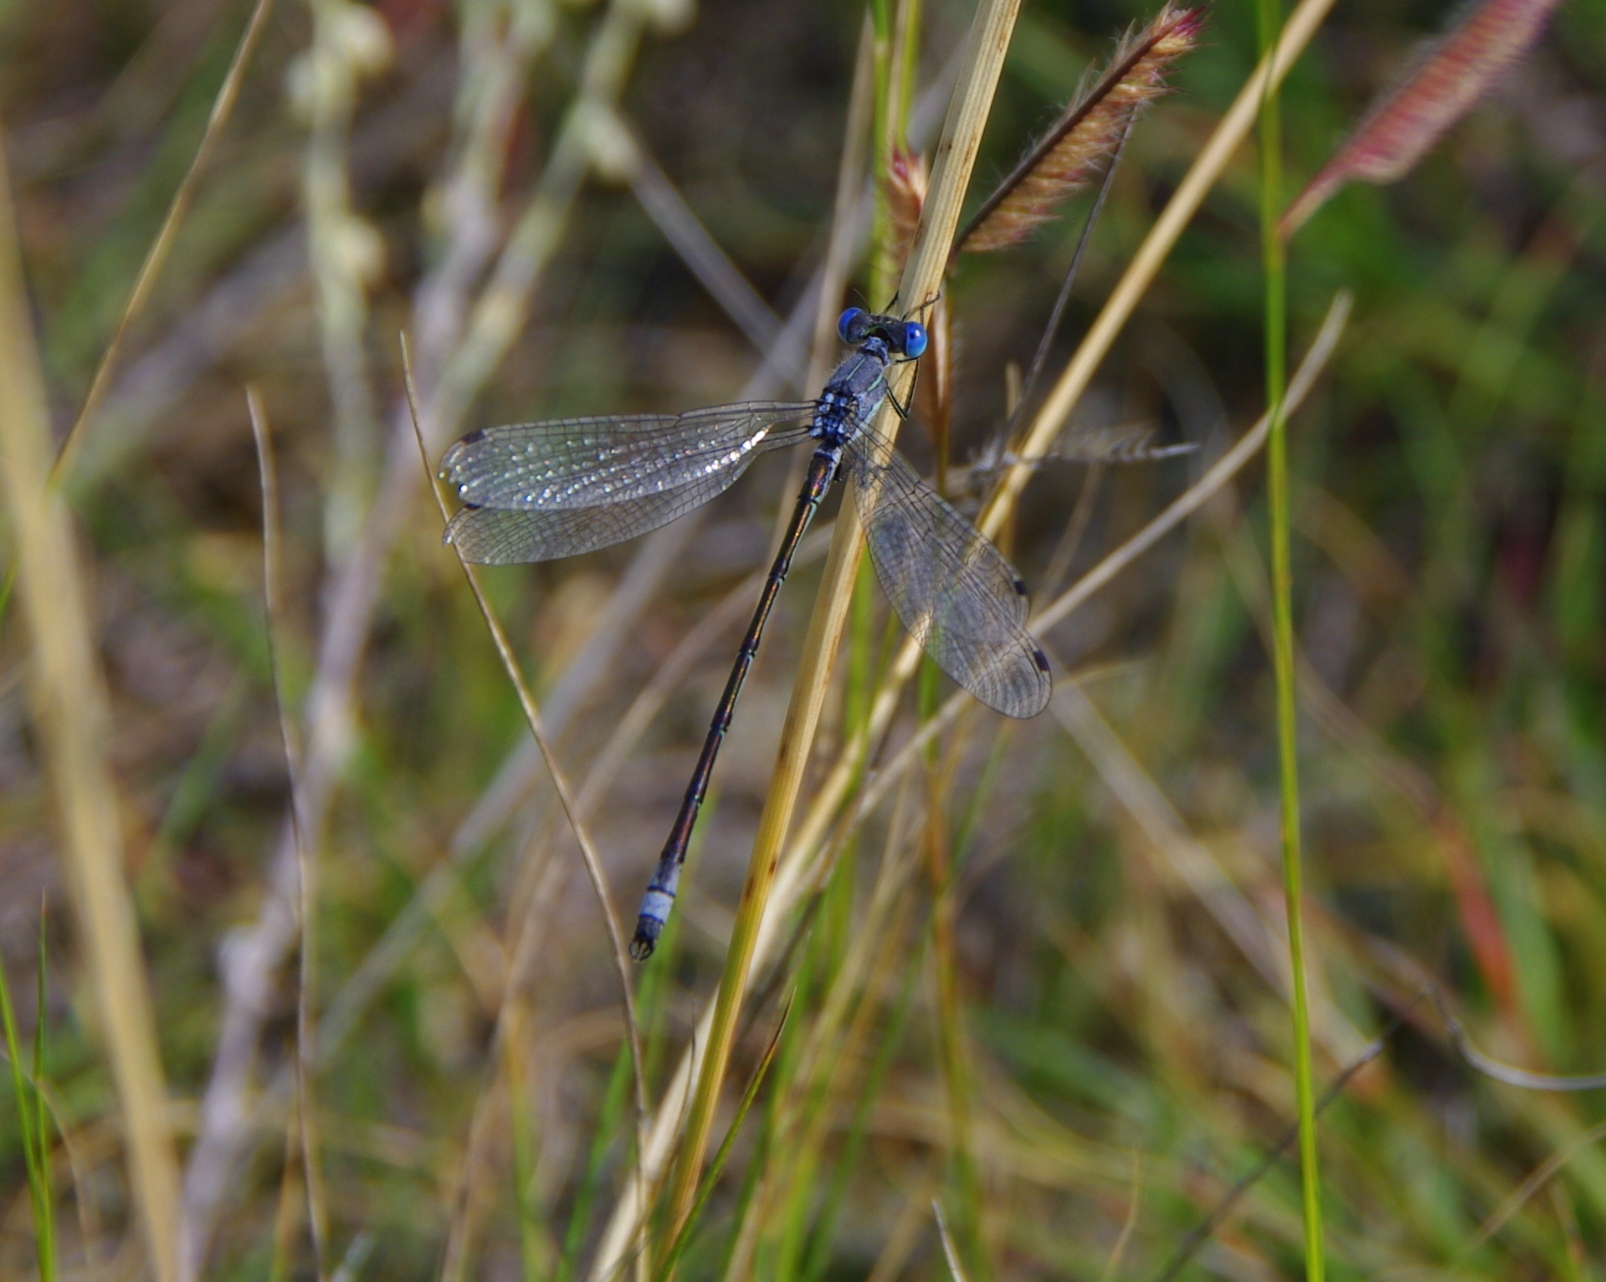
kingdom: Animalia
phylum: Arthropoda
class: Insecta
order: Odonata
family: Lestidae
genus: Lestes
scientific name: Lestes unguiculatus
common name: Lyre-tipped spreadwing
